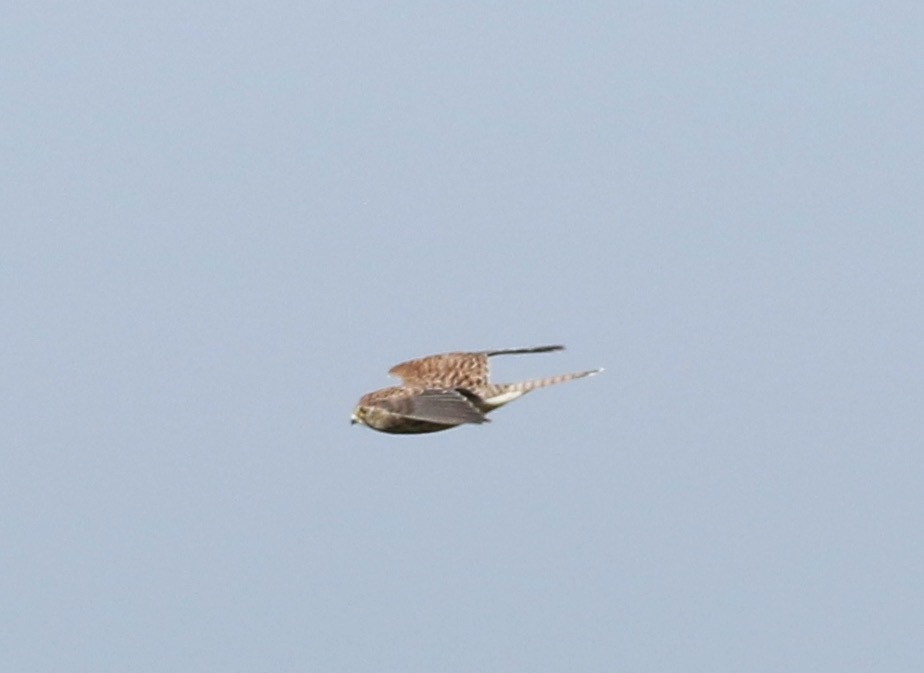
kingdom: Animalia
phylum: Chordata
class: Aves
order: Falconiformes
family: Falconidae
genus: Falco
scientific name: Falco tinnunculus
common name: Common kestrel
